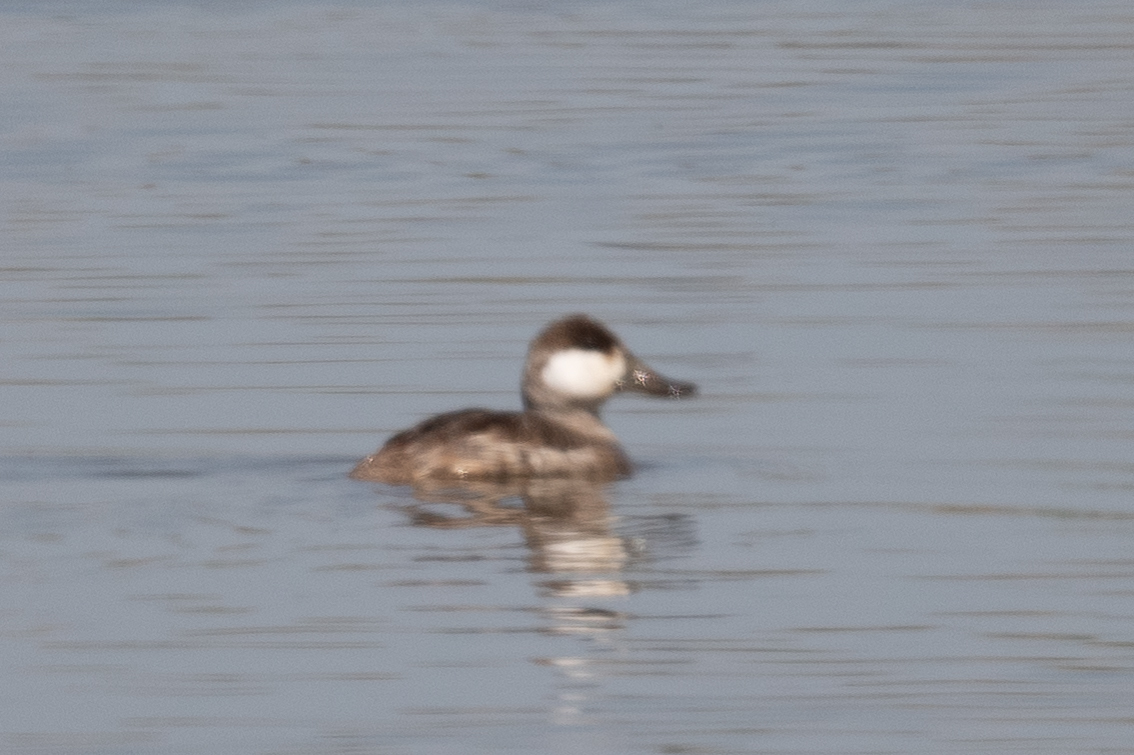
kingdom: Animalia
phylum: Chordata
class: Aves
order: Anseriformes
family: Anatidae
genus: Oxyura
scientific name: Oxyura jamaicensis
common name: Ruddy duck
